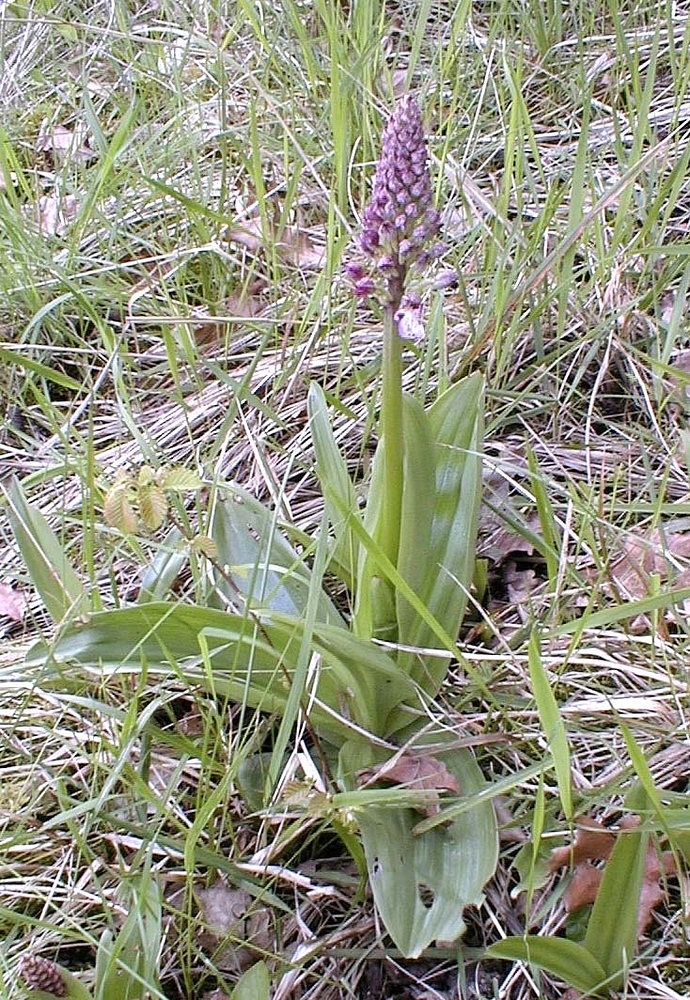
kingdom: Plantae
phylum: Tracheophyta
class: Liliopsida
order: Asparagales
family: Orchidaceae
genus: Orchis
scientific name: Orchis purpurea
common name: Lady orchid
